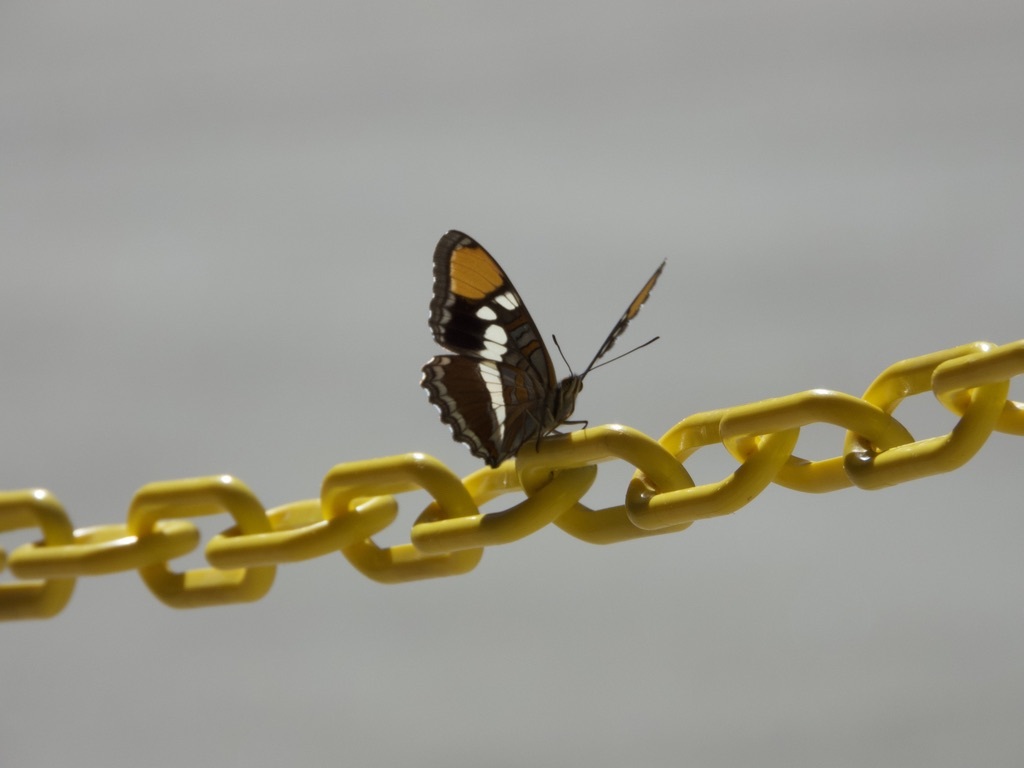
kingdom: Animalia
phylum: Arthropoda
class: Insecta
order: Lepidoptera
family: Nymphalidae
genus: Limenitis
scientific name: Limenitis bredowii
